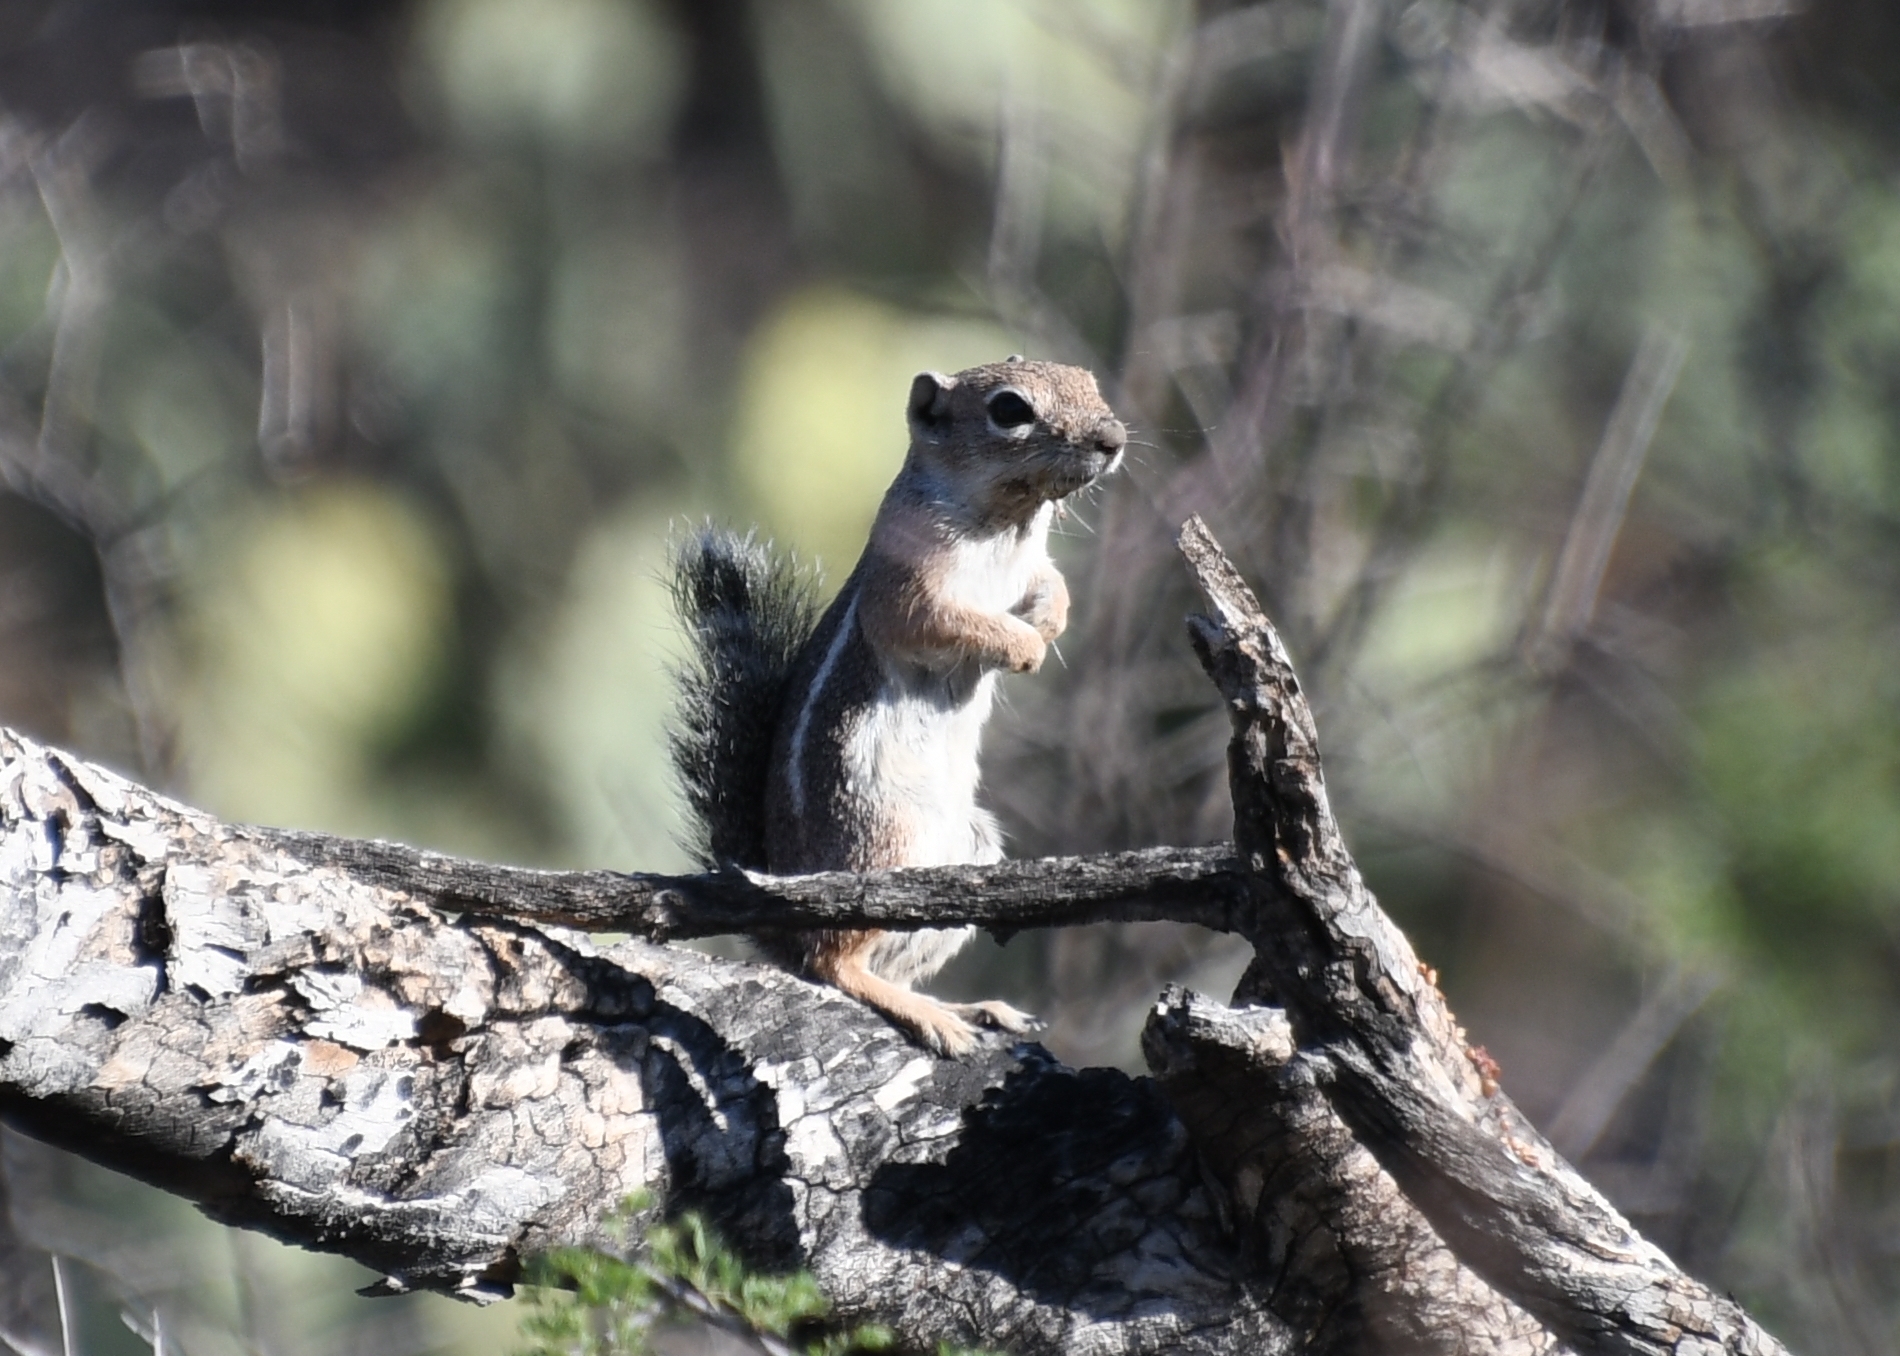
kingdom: Animalia
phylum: Chordata
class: Mammalia
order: Rodentia
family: Sciuridae
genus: Ammospermophilus
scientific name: Ammospermophilus harrisii
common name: Harris's antelope squirrel
